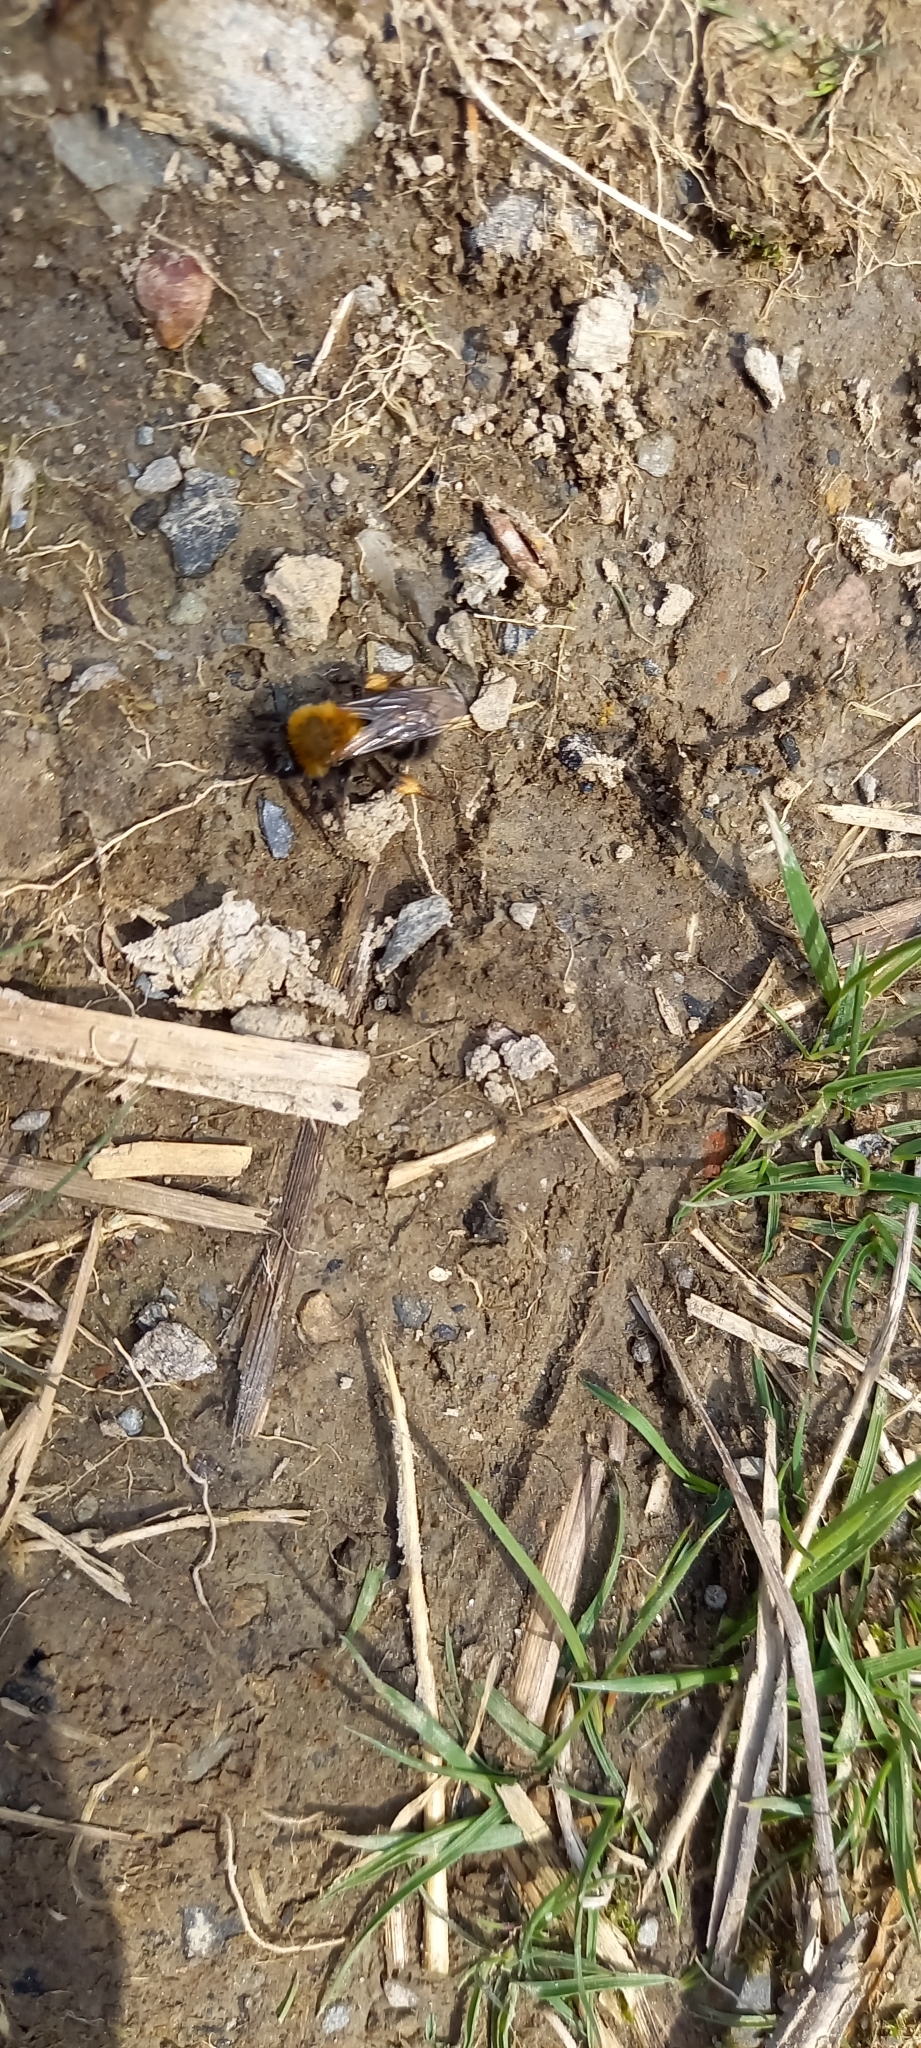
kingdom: Animalia
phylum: Arthropoda
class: Insecta
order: Hymenoptera
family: Andrenidae
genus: Andrena
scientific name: Andrena clarkella
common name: Clarke's mining bee
